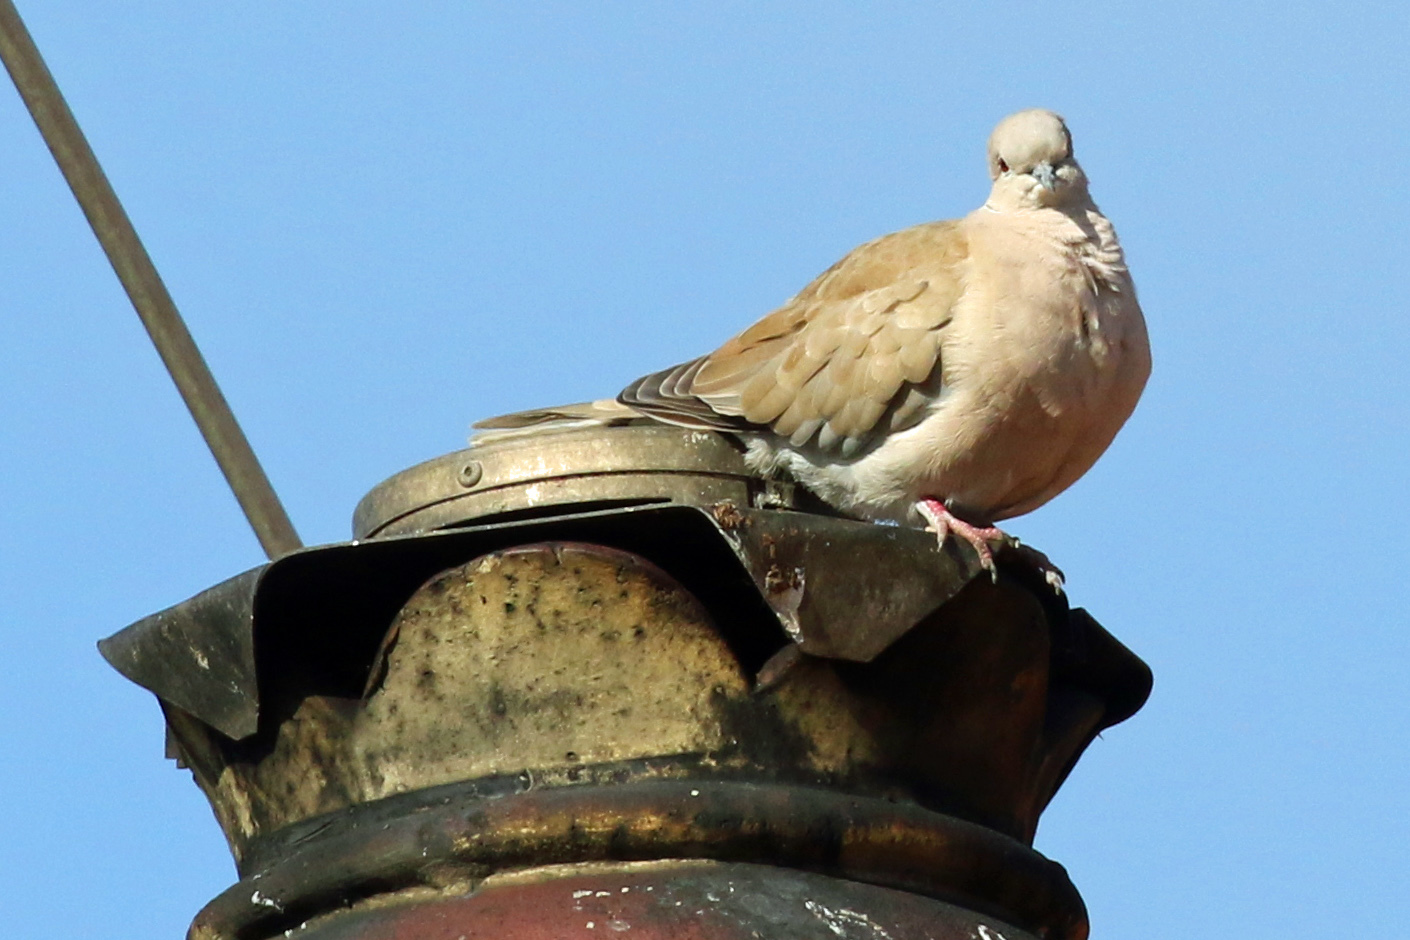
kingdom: Animalia
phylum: Chordata
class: Aves
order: Columbiformes
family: Columbidae
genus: Streptopelia
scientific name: Streptopelia decaocto
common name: Eurasian collared dove
